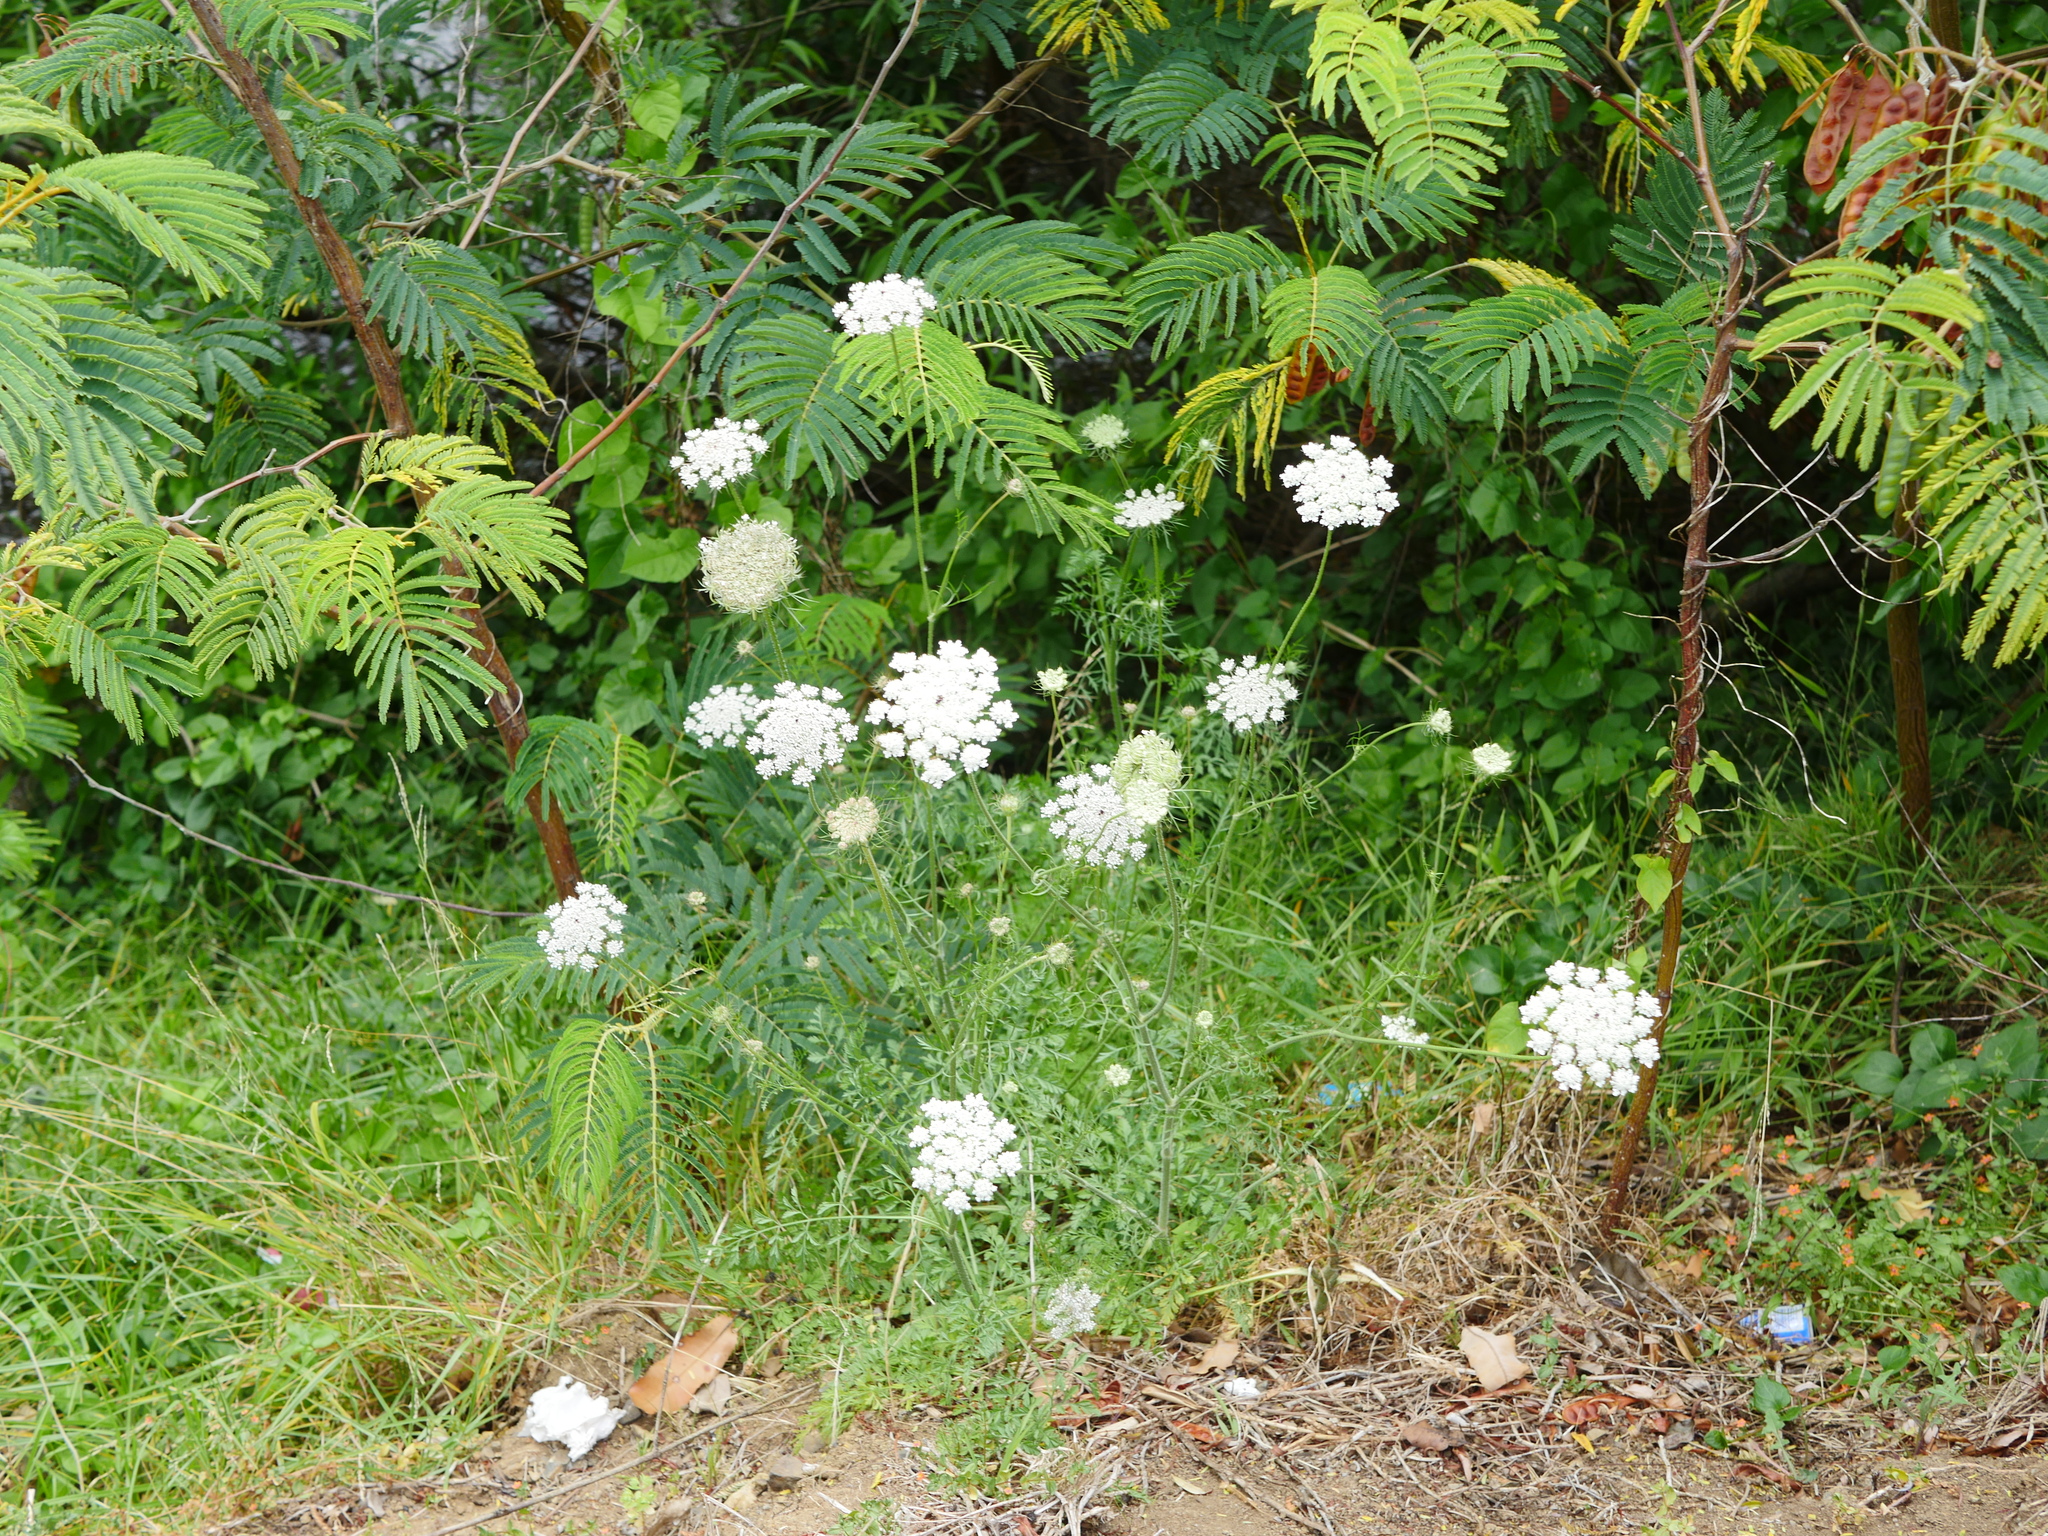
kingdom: Plantae
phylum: Tracheophyta
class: Magnoliopsida
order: Apiales
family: Apiaceae
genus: Daucus
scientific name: Daucus carota
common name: Wild carrot
